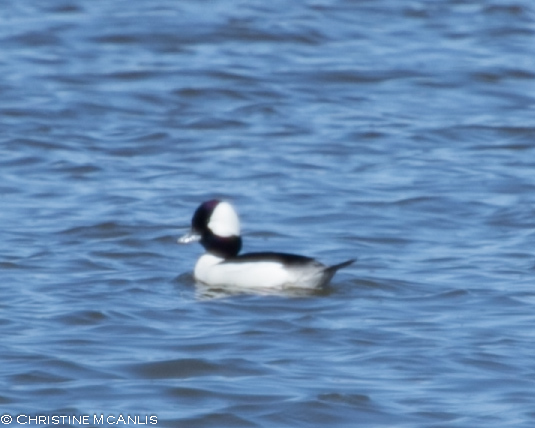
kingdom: Animalia
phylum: Chordata
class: Aves
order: Anseriformes
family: Anatidae
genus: Bucephala
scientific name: Bucephala albeola
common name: Bufflehead
